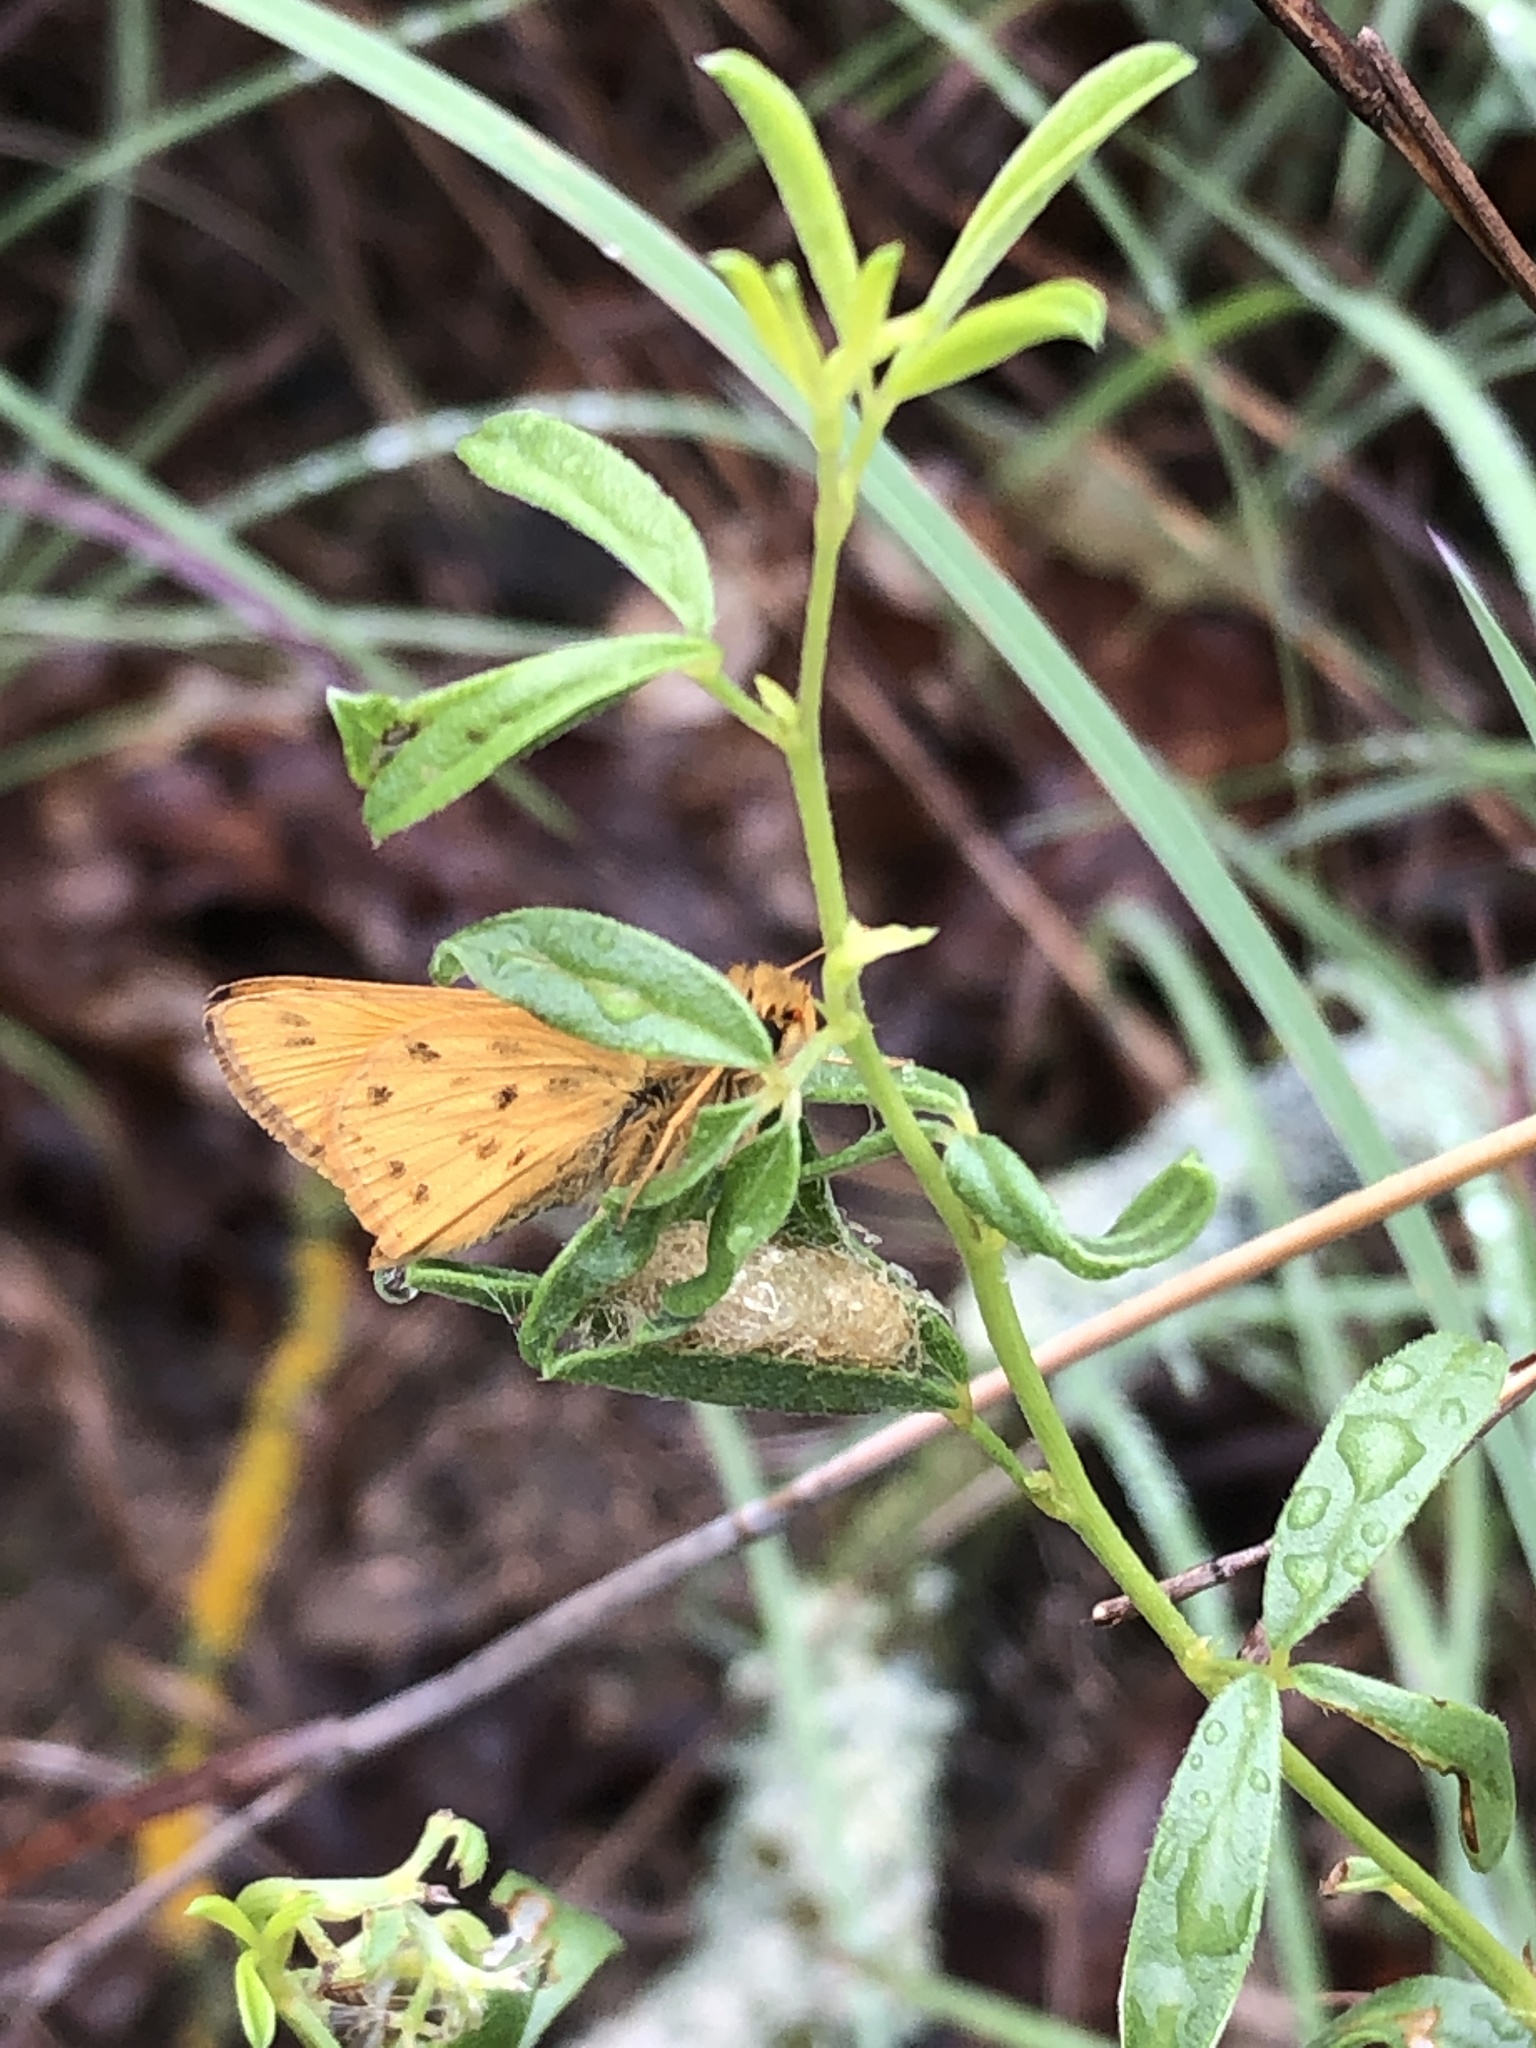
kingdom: Animalia
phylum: Arthropoda
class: Insecta
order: Lepidoptera
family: Hesperiidae
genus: Hylephila
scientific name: Hylephila phyleus
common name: Fiery skipper
